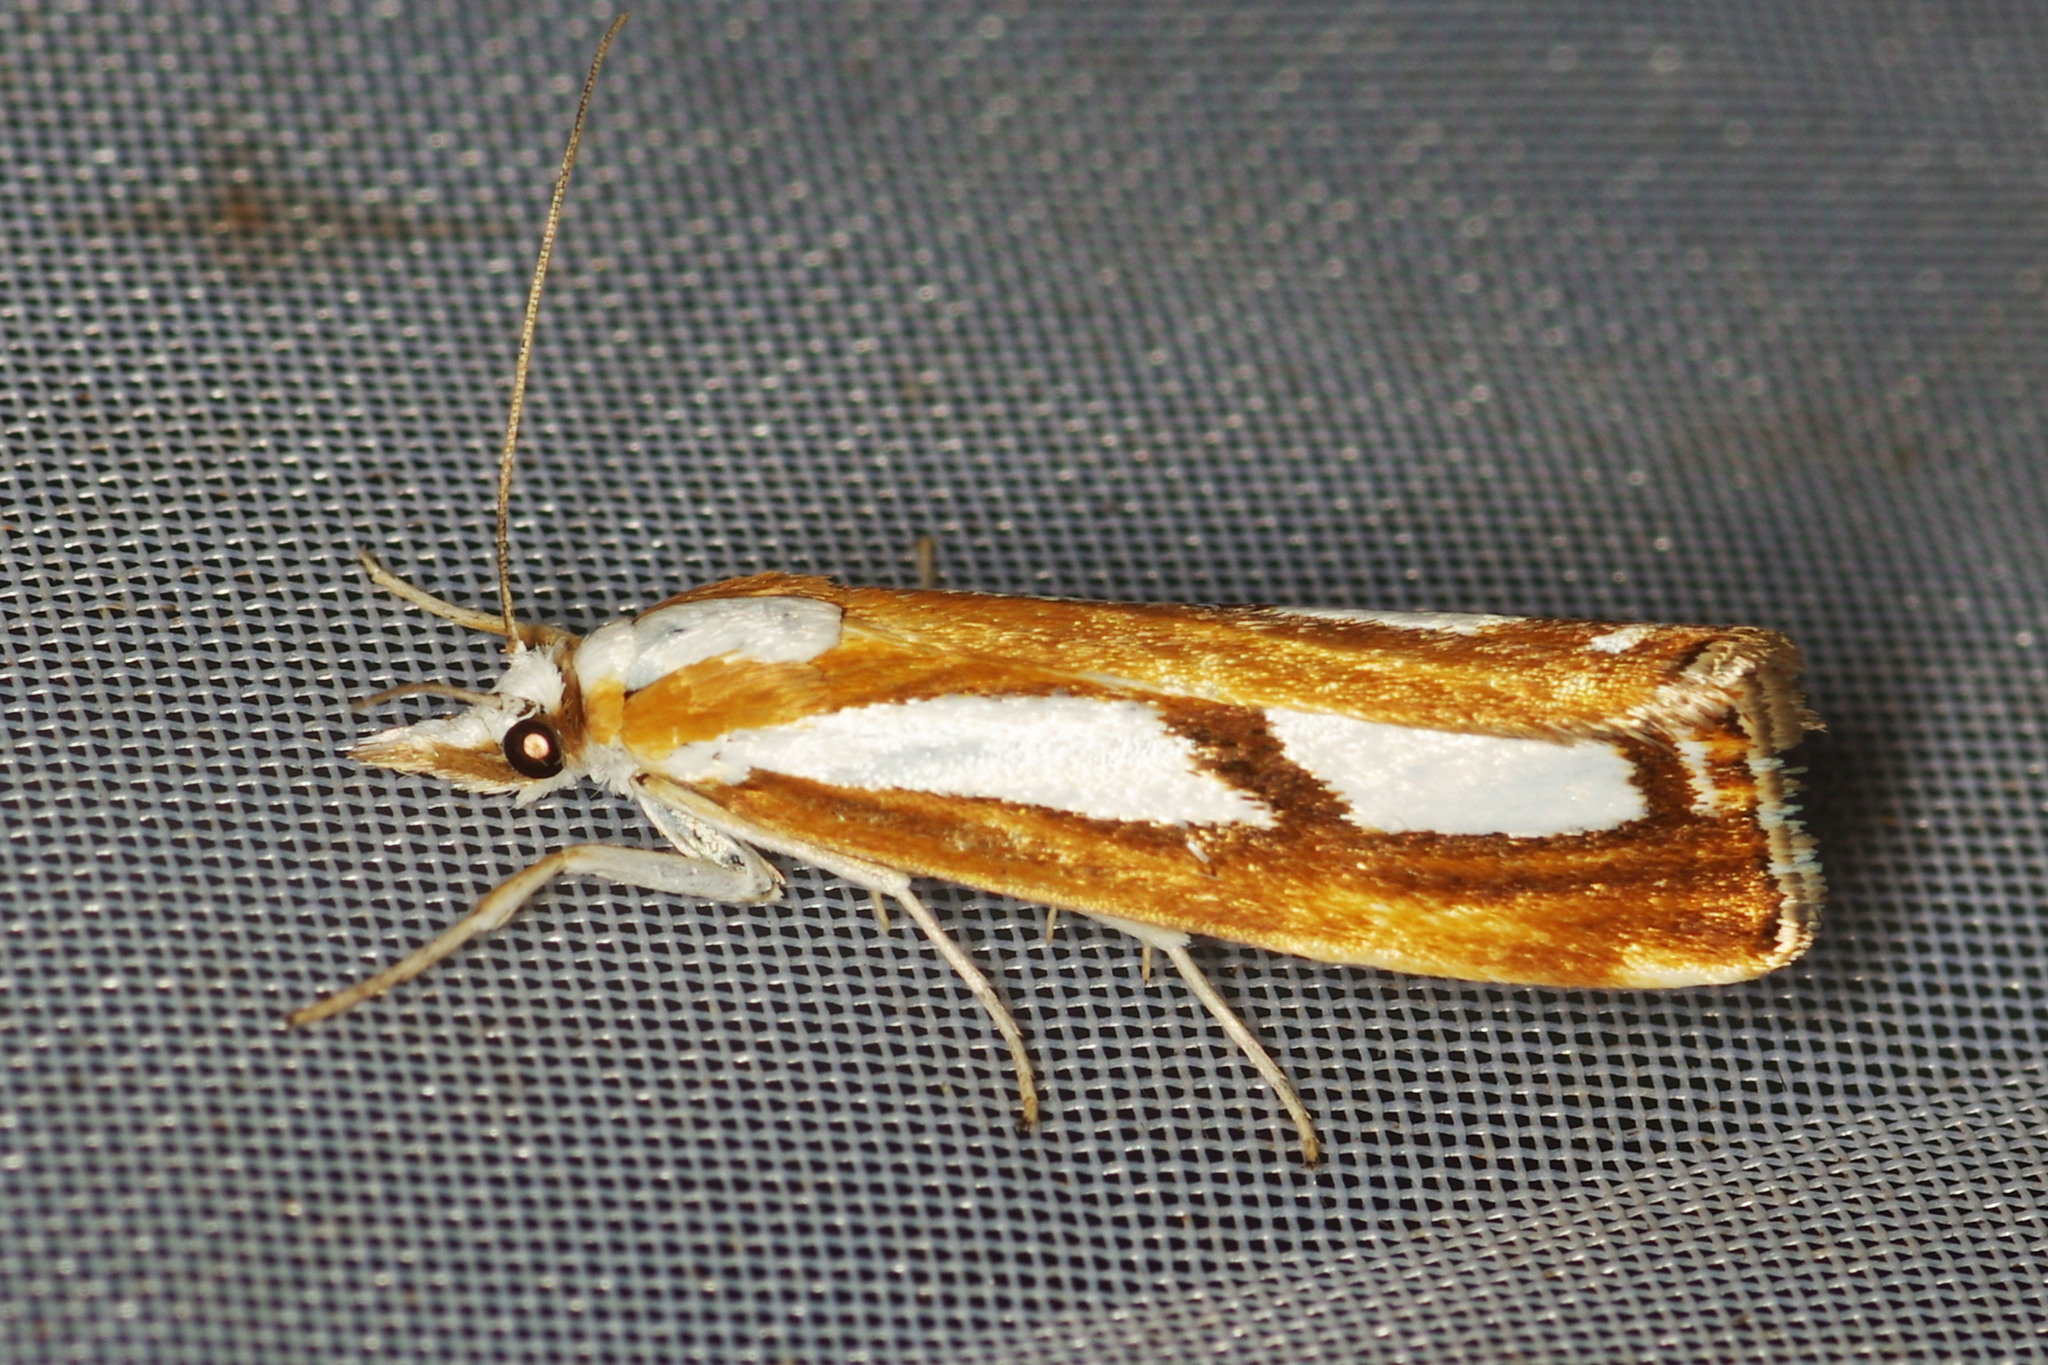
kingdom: Animalia
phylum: Arthropoda
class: Insecta
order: Lepidoptera
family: Crambidae
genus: Catoptria
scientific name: Catoptria
